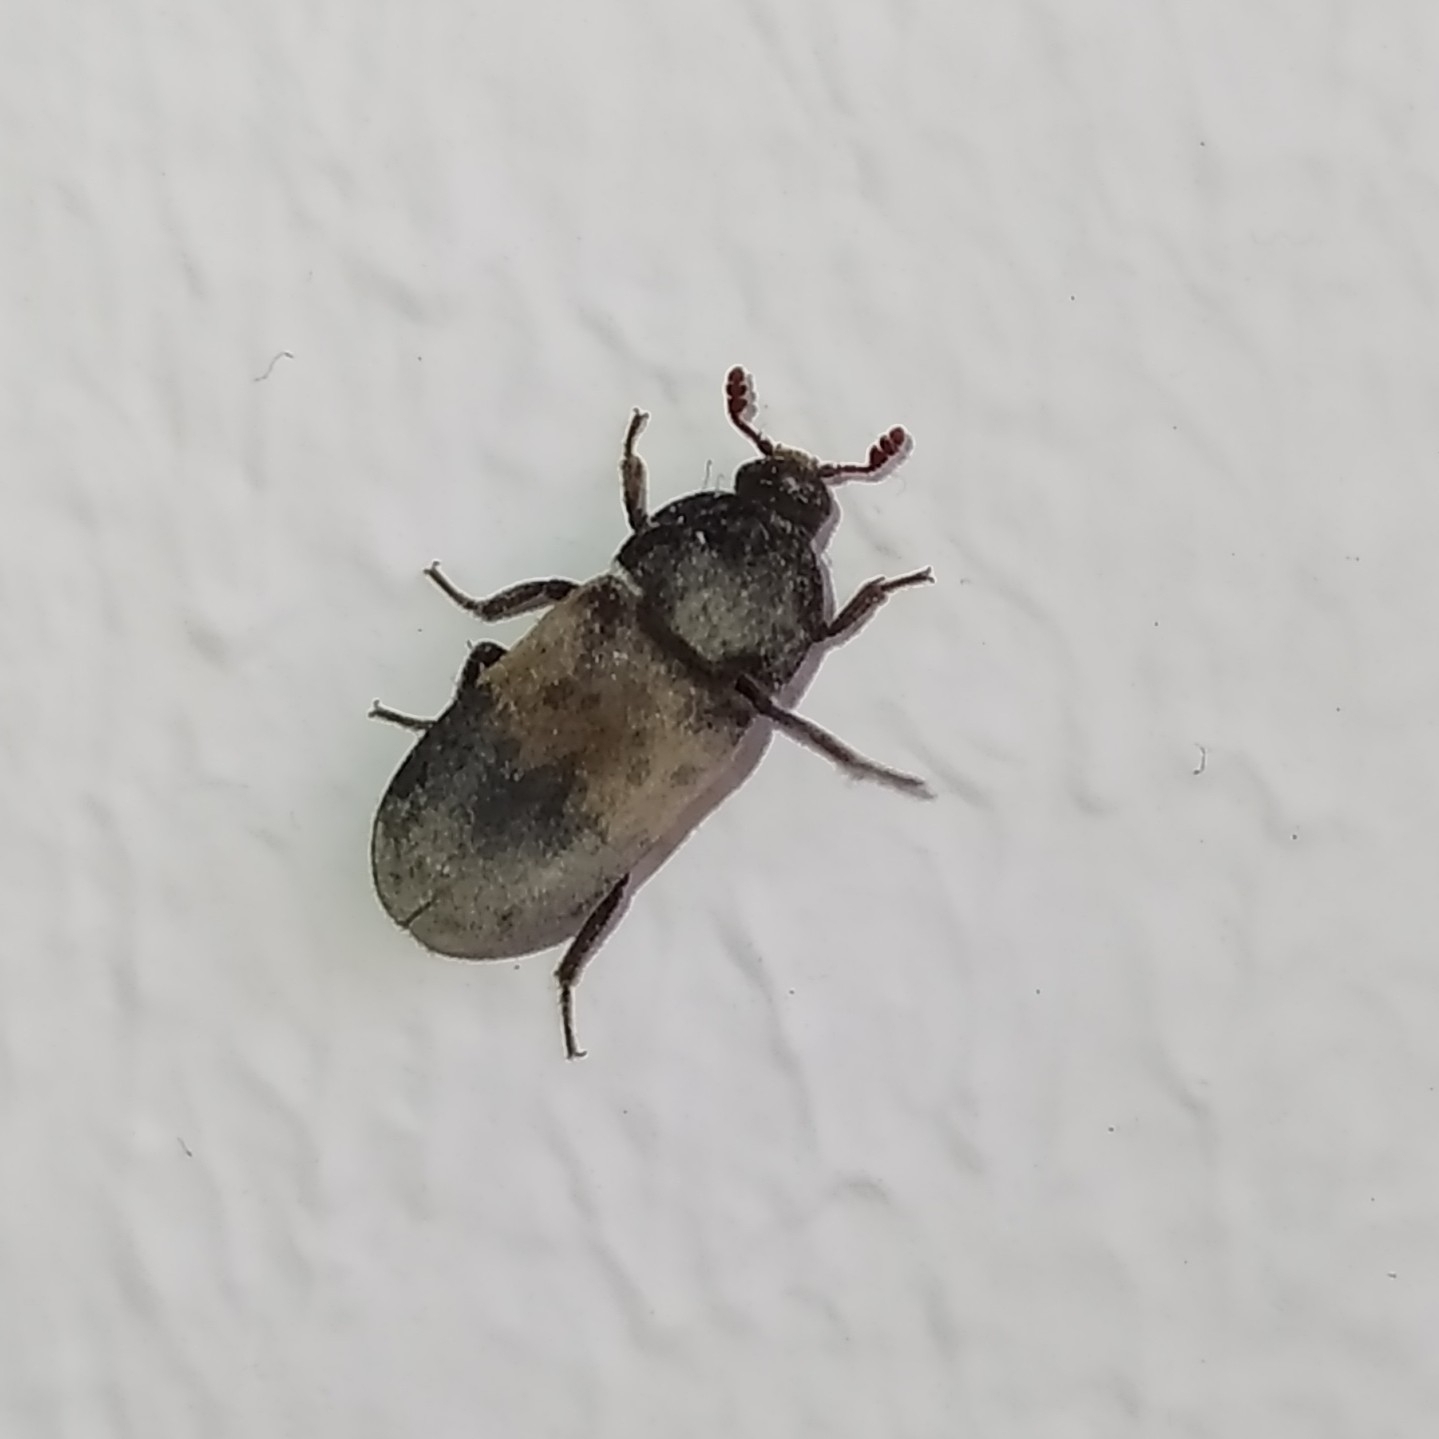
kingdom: Animalia
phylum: Arthropoda
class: Insecta
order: Coleoptera
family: Dermestidae
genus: Dermestes
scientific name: Dermestes lardarius
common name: Larder beetle
